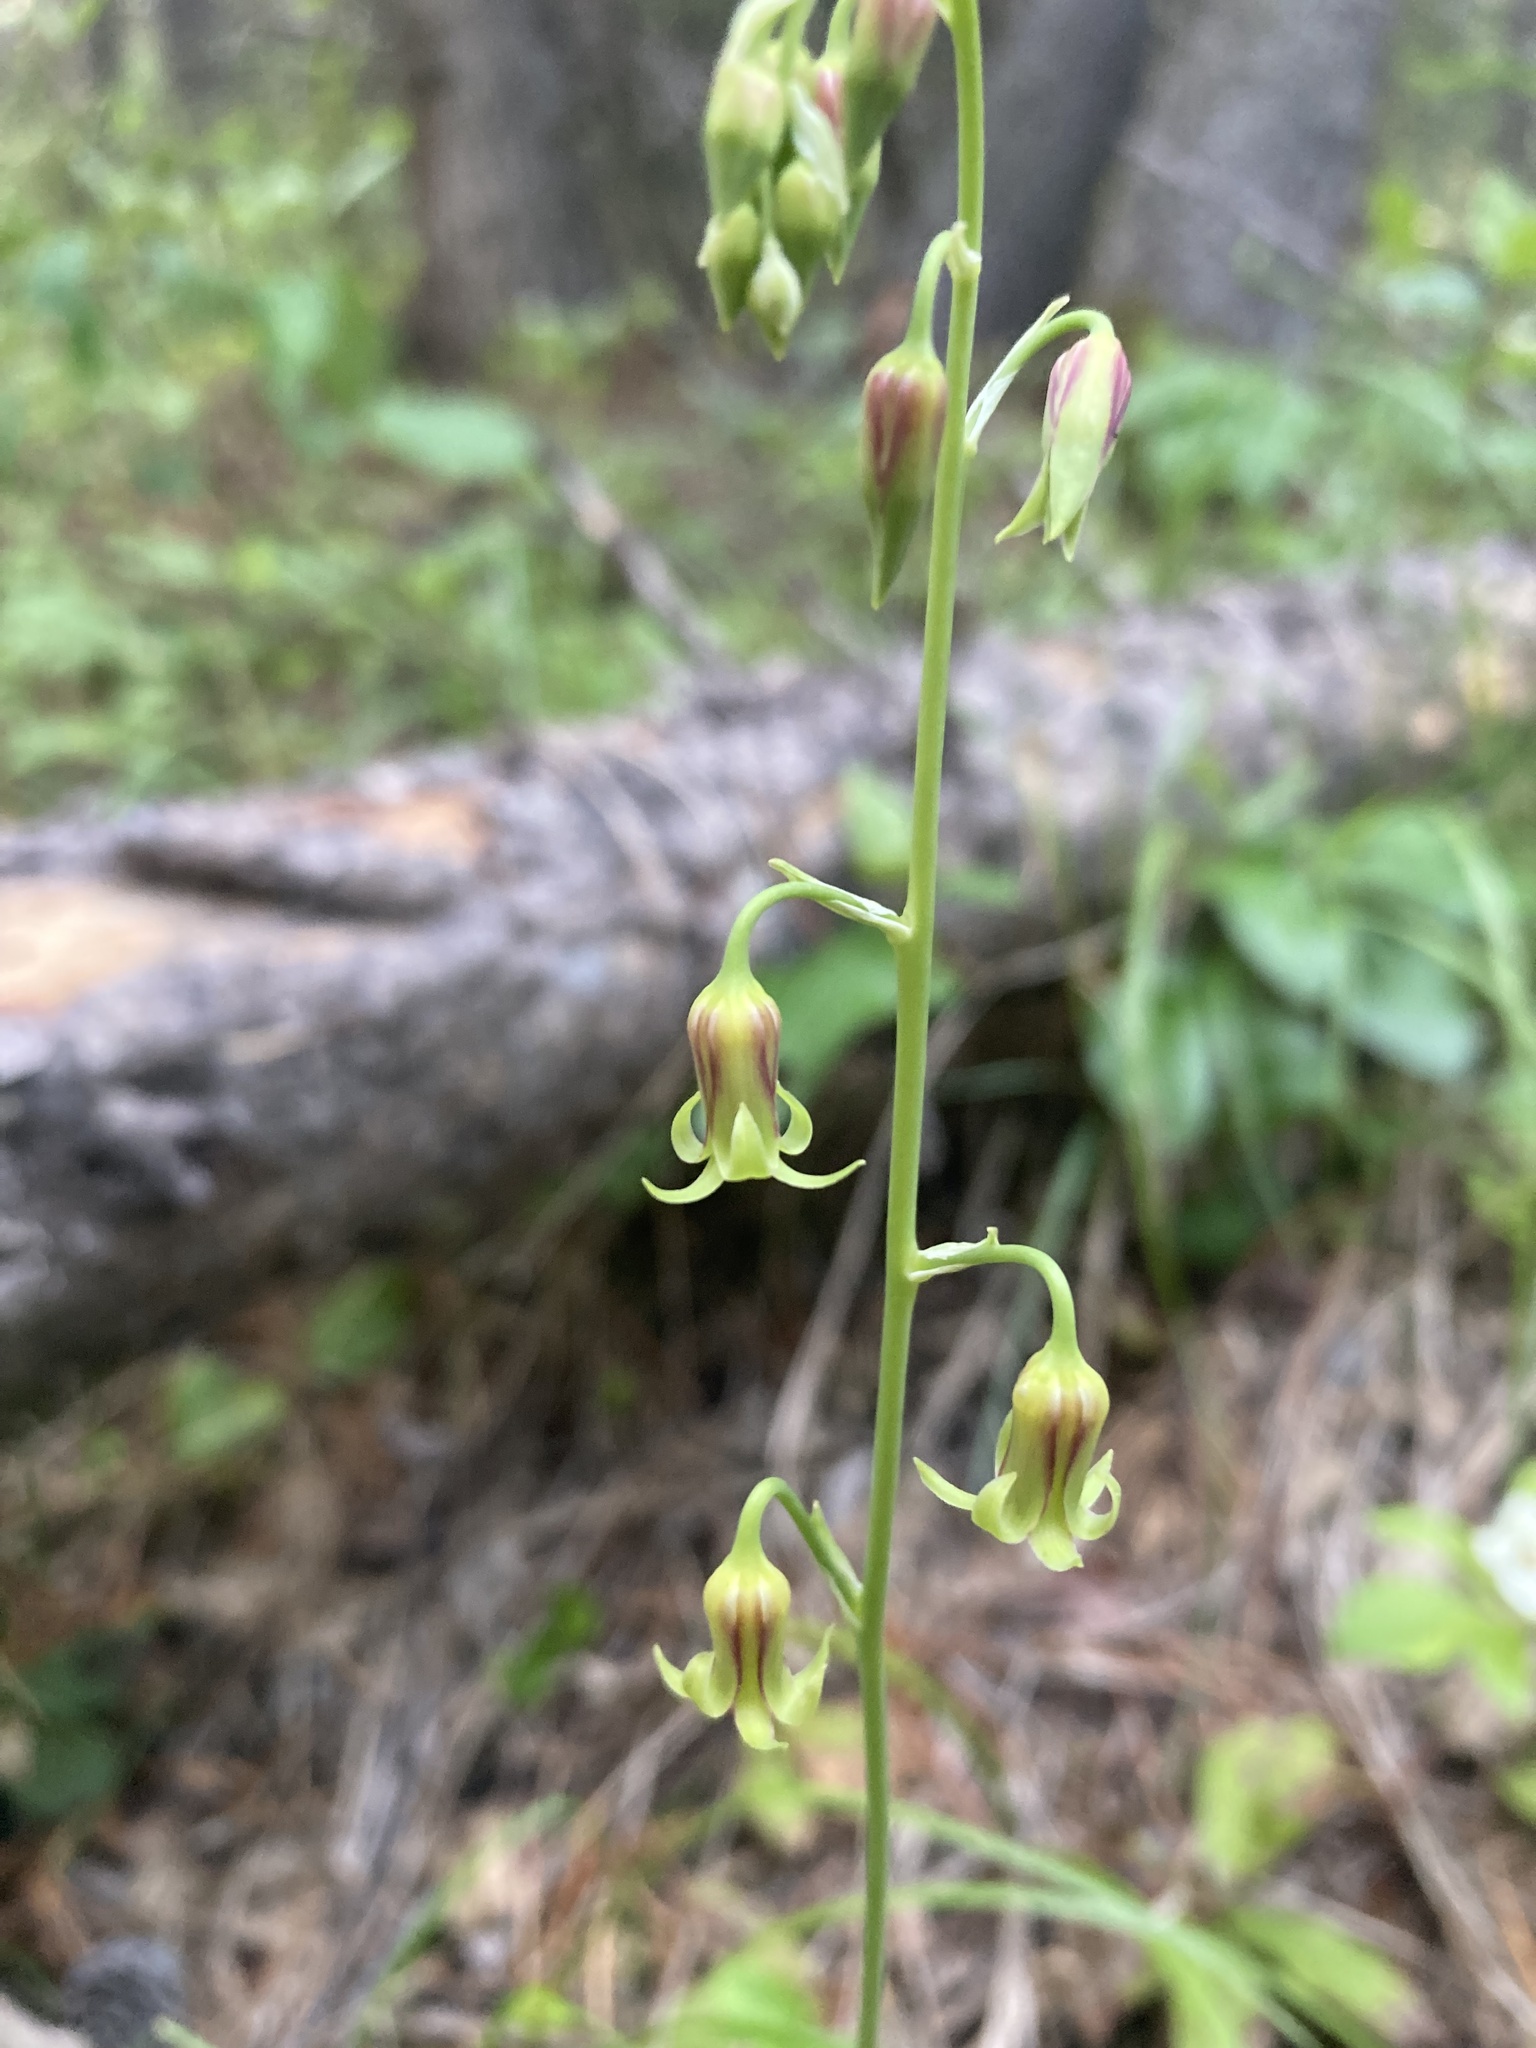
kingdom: Plantae
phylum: Tracheophyta
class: Liliopsida
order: Liliales
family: Melanthiaceae
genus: Anticlea
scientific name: Anticlea occidentalis
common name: Bronze-bells
